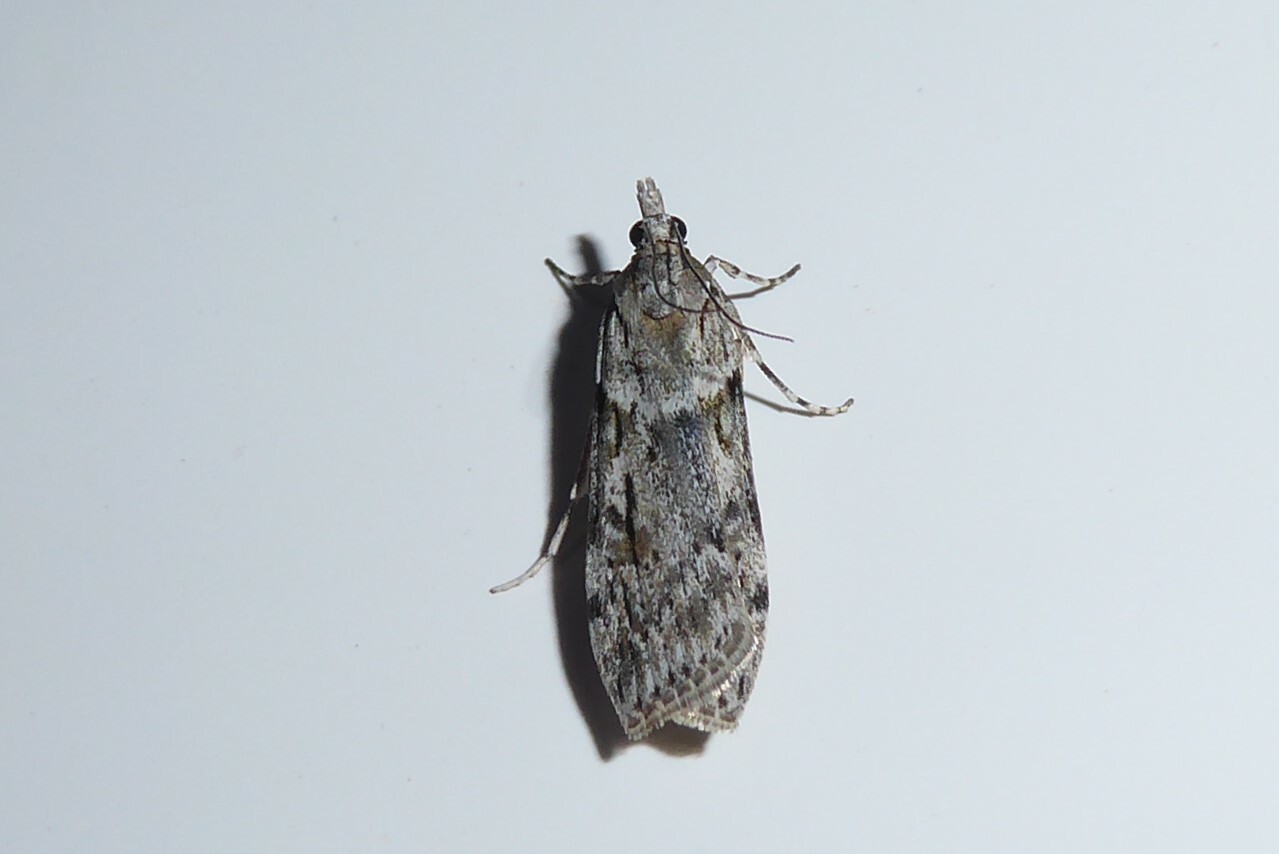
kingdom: Animalia
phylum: Arthropoda
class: Insecta
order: Lepidoptera
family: Crambidae
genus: Scoparia
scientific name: Scoparia halopis
